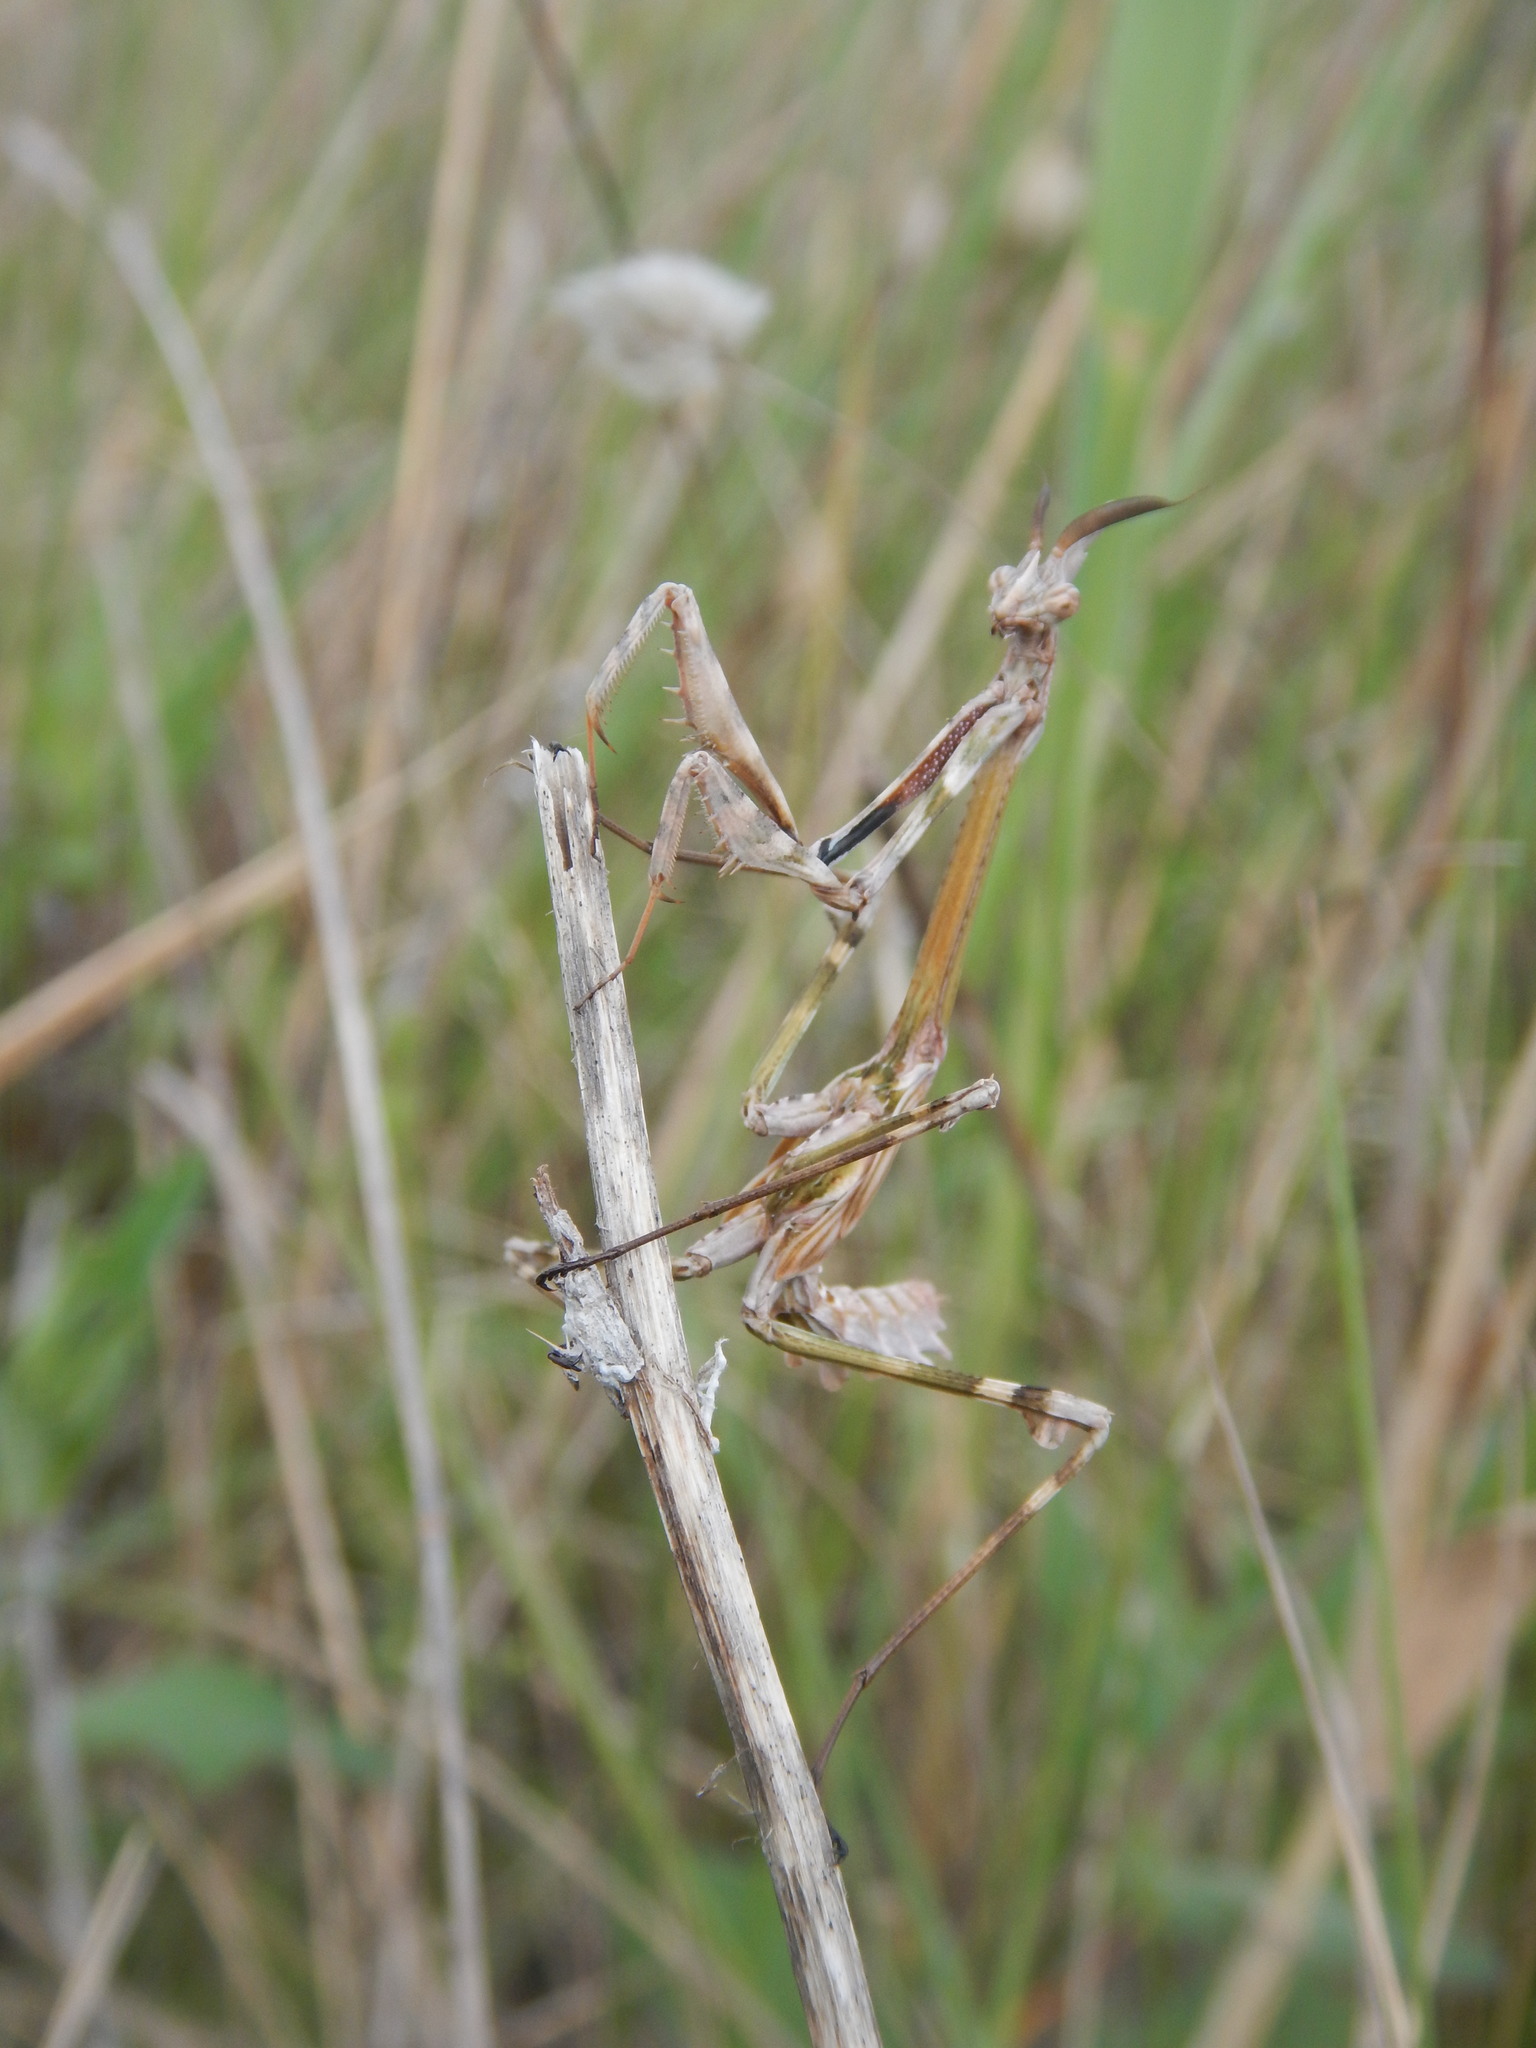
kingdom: Animalia
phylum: Arthropoda
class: Insecta
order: Mantodea
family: Empusidae
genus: Empusa
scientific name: Empusa pennata
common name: Conehead mantis
